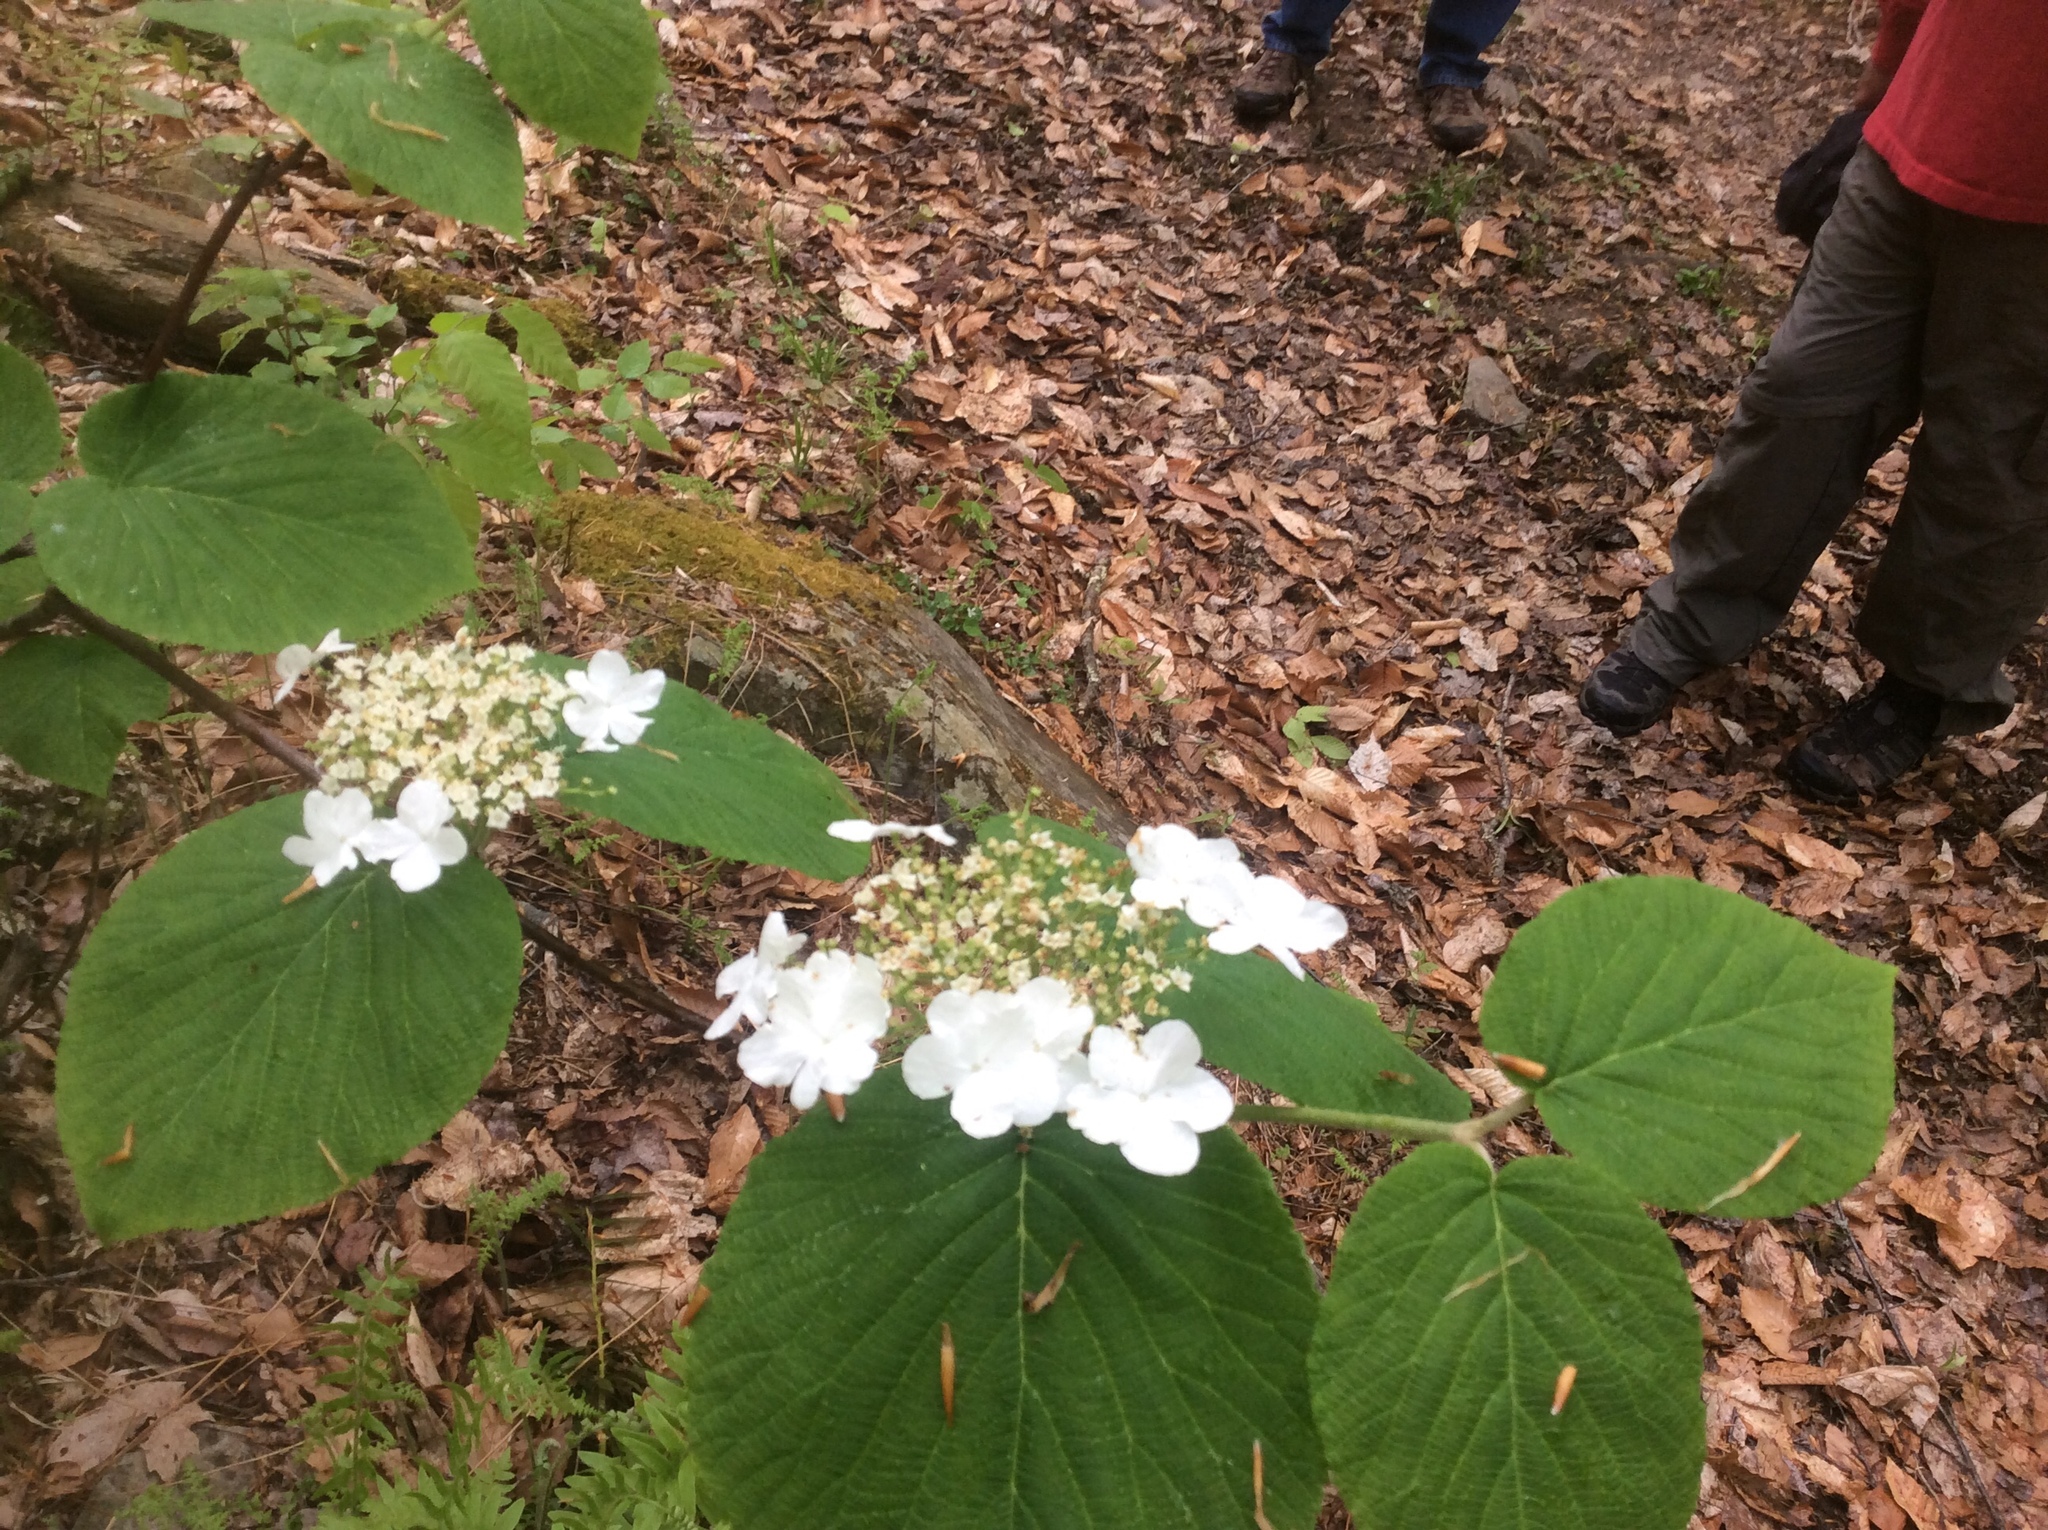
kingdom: Plantae
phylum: Tracheophyta
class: Magnoliopsida
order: Dipsacales
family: Viburnaceae
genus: Viburnum
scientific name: Viburnum lantanoides
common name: Hobblebush
